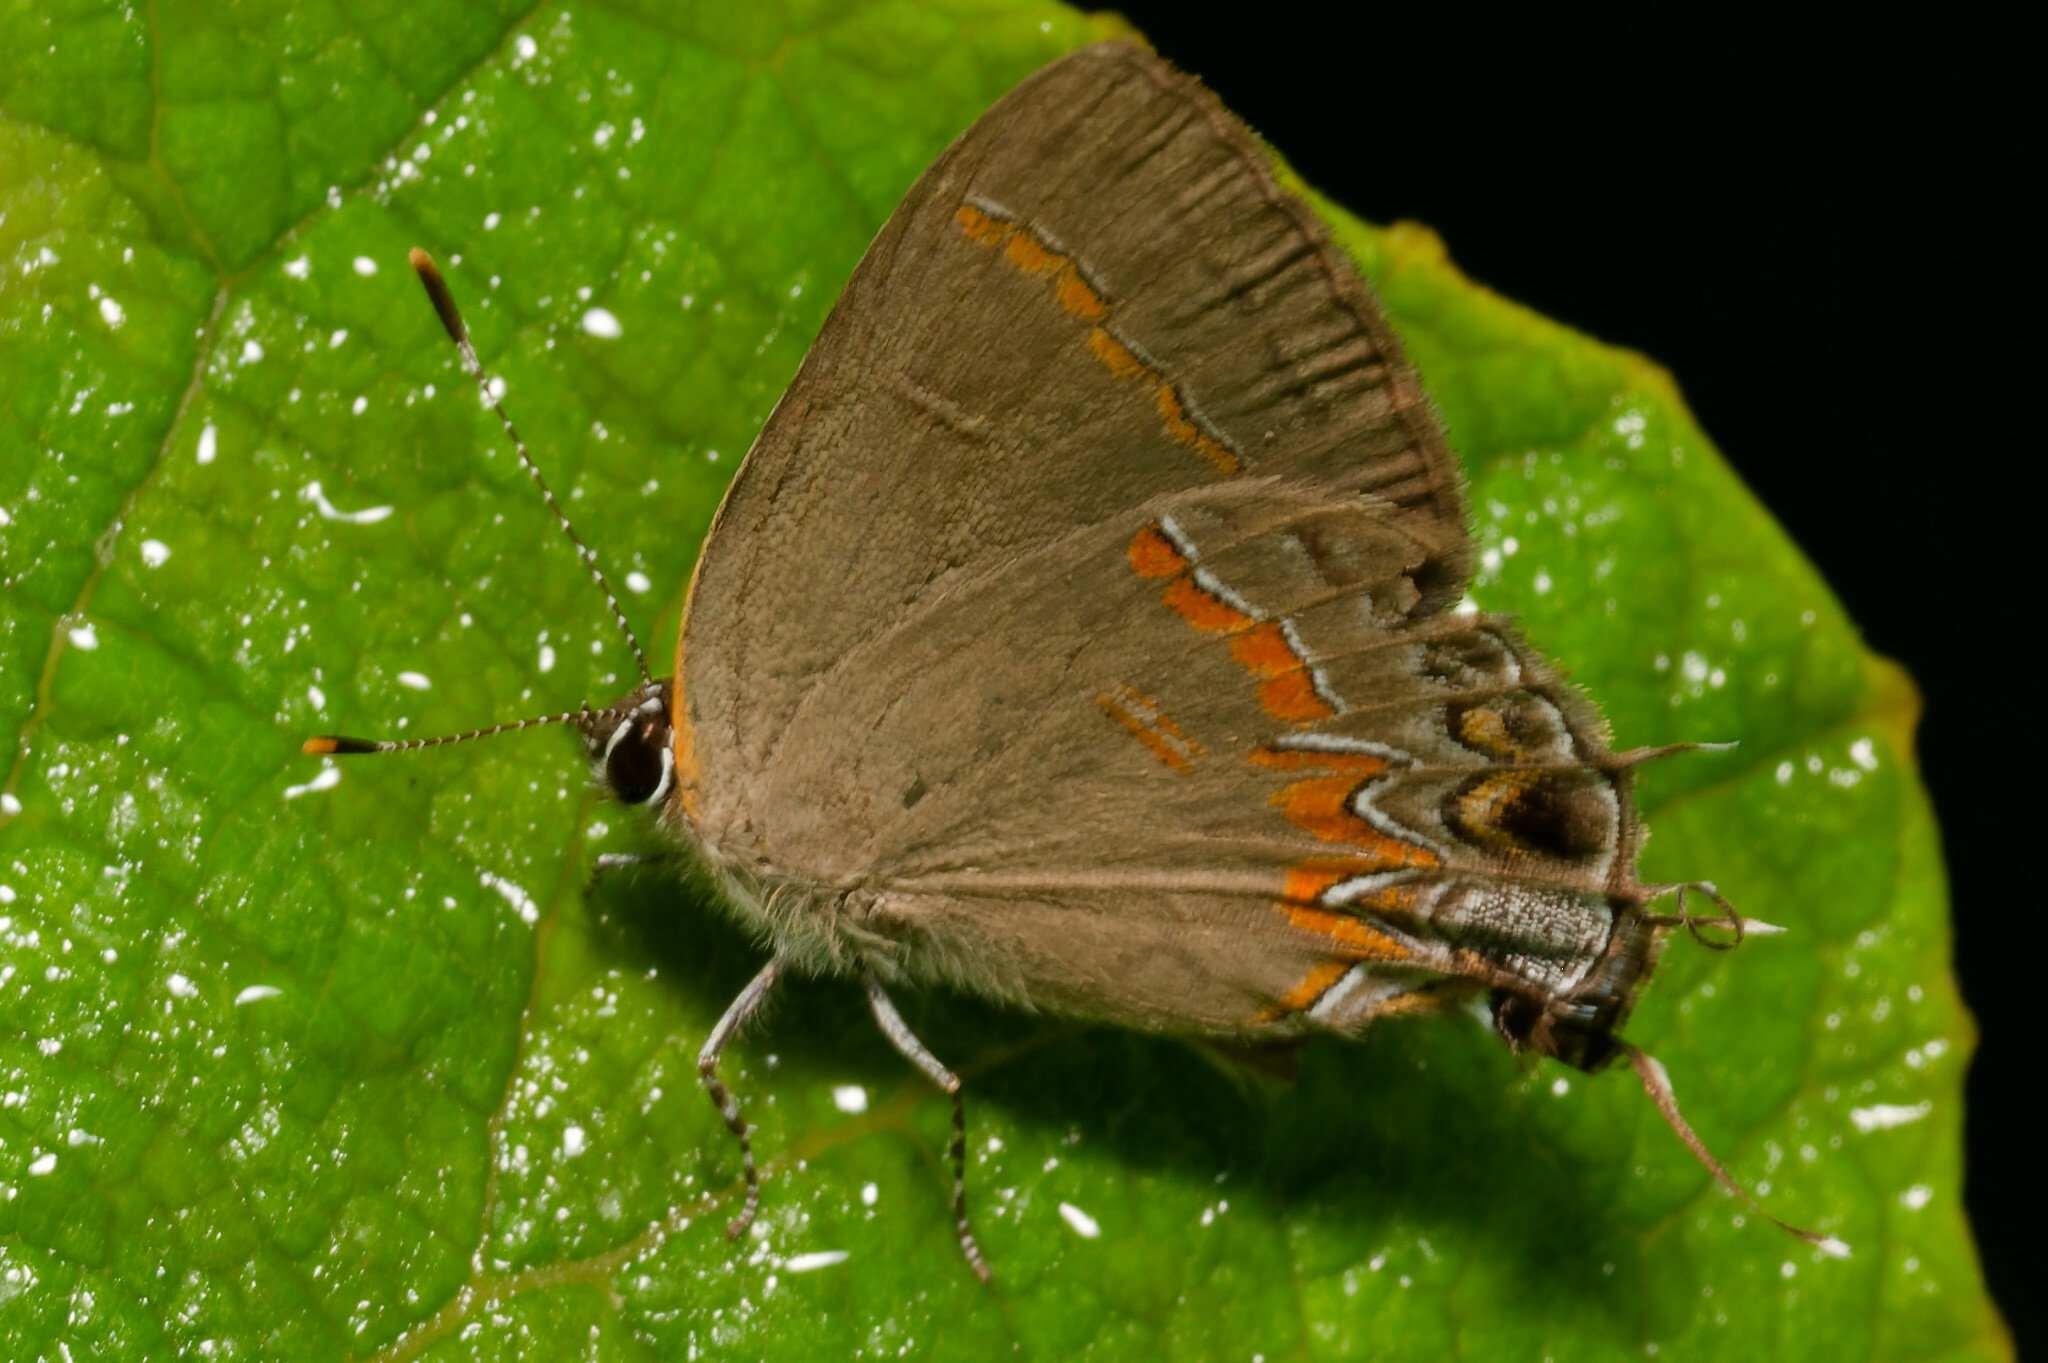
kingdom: Animalia
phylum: Arthropoda
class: Insecta
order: Lepidoptera
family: Lycaenidae
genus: Calycopis
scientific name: Calycopis cecrops
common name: Red-banded hairstreak
